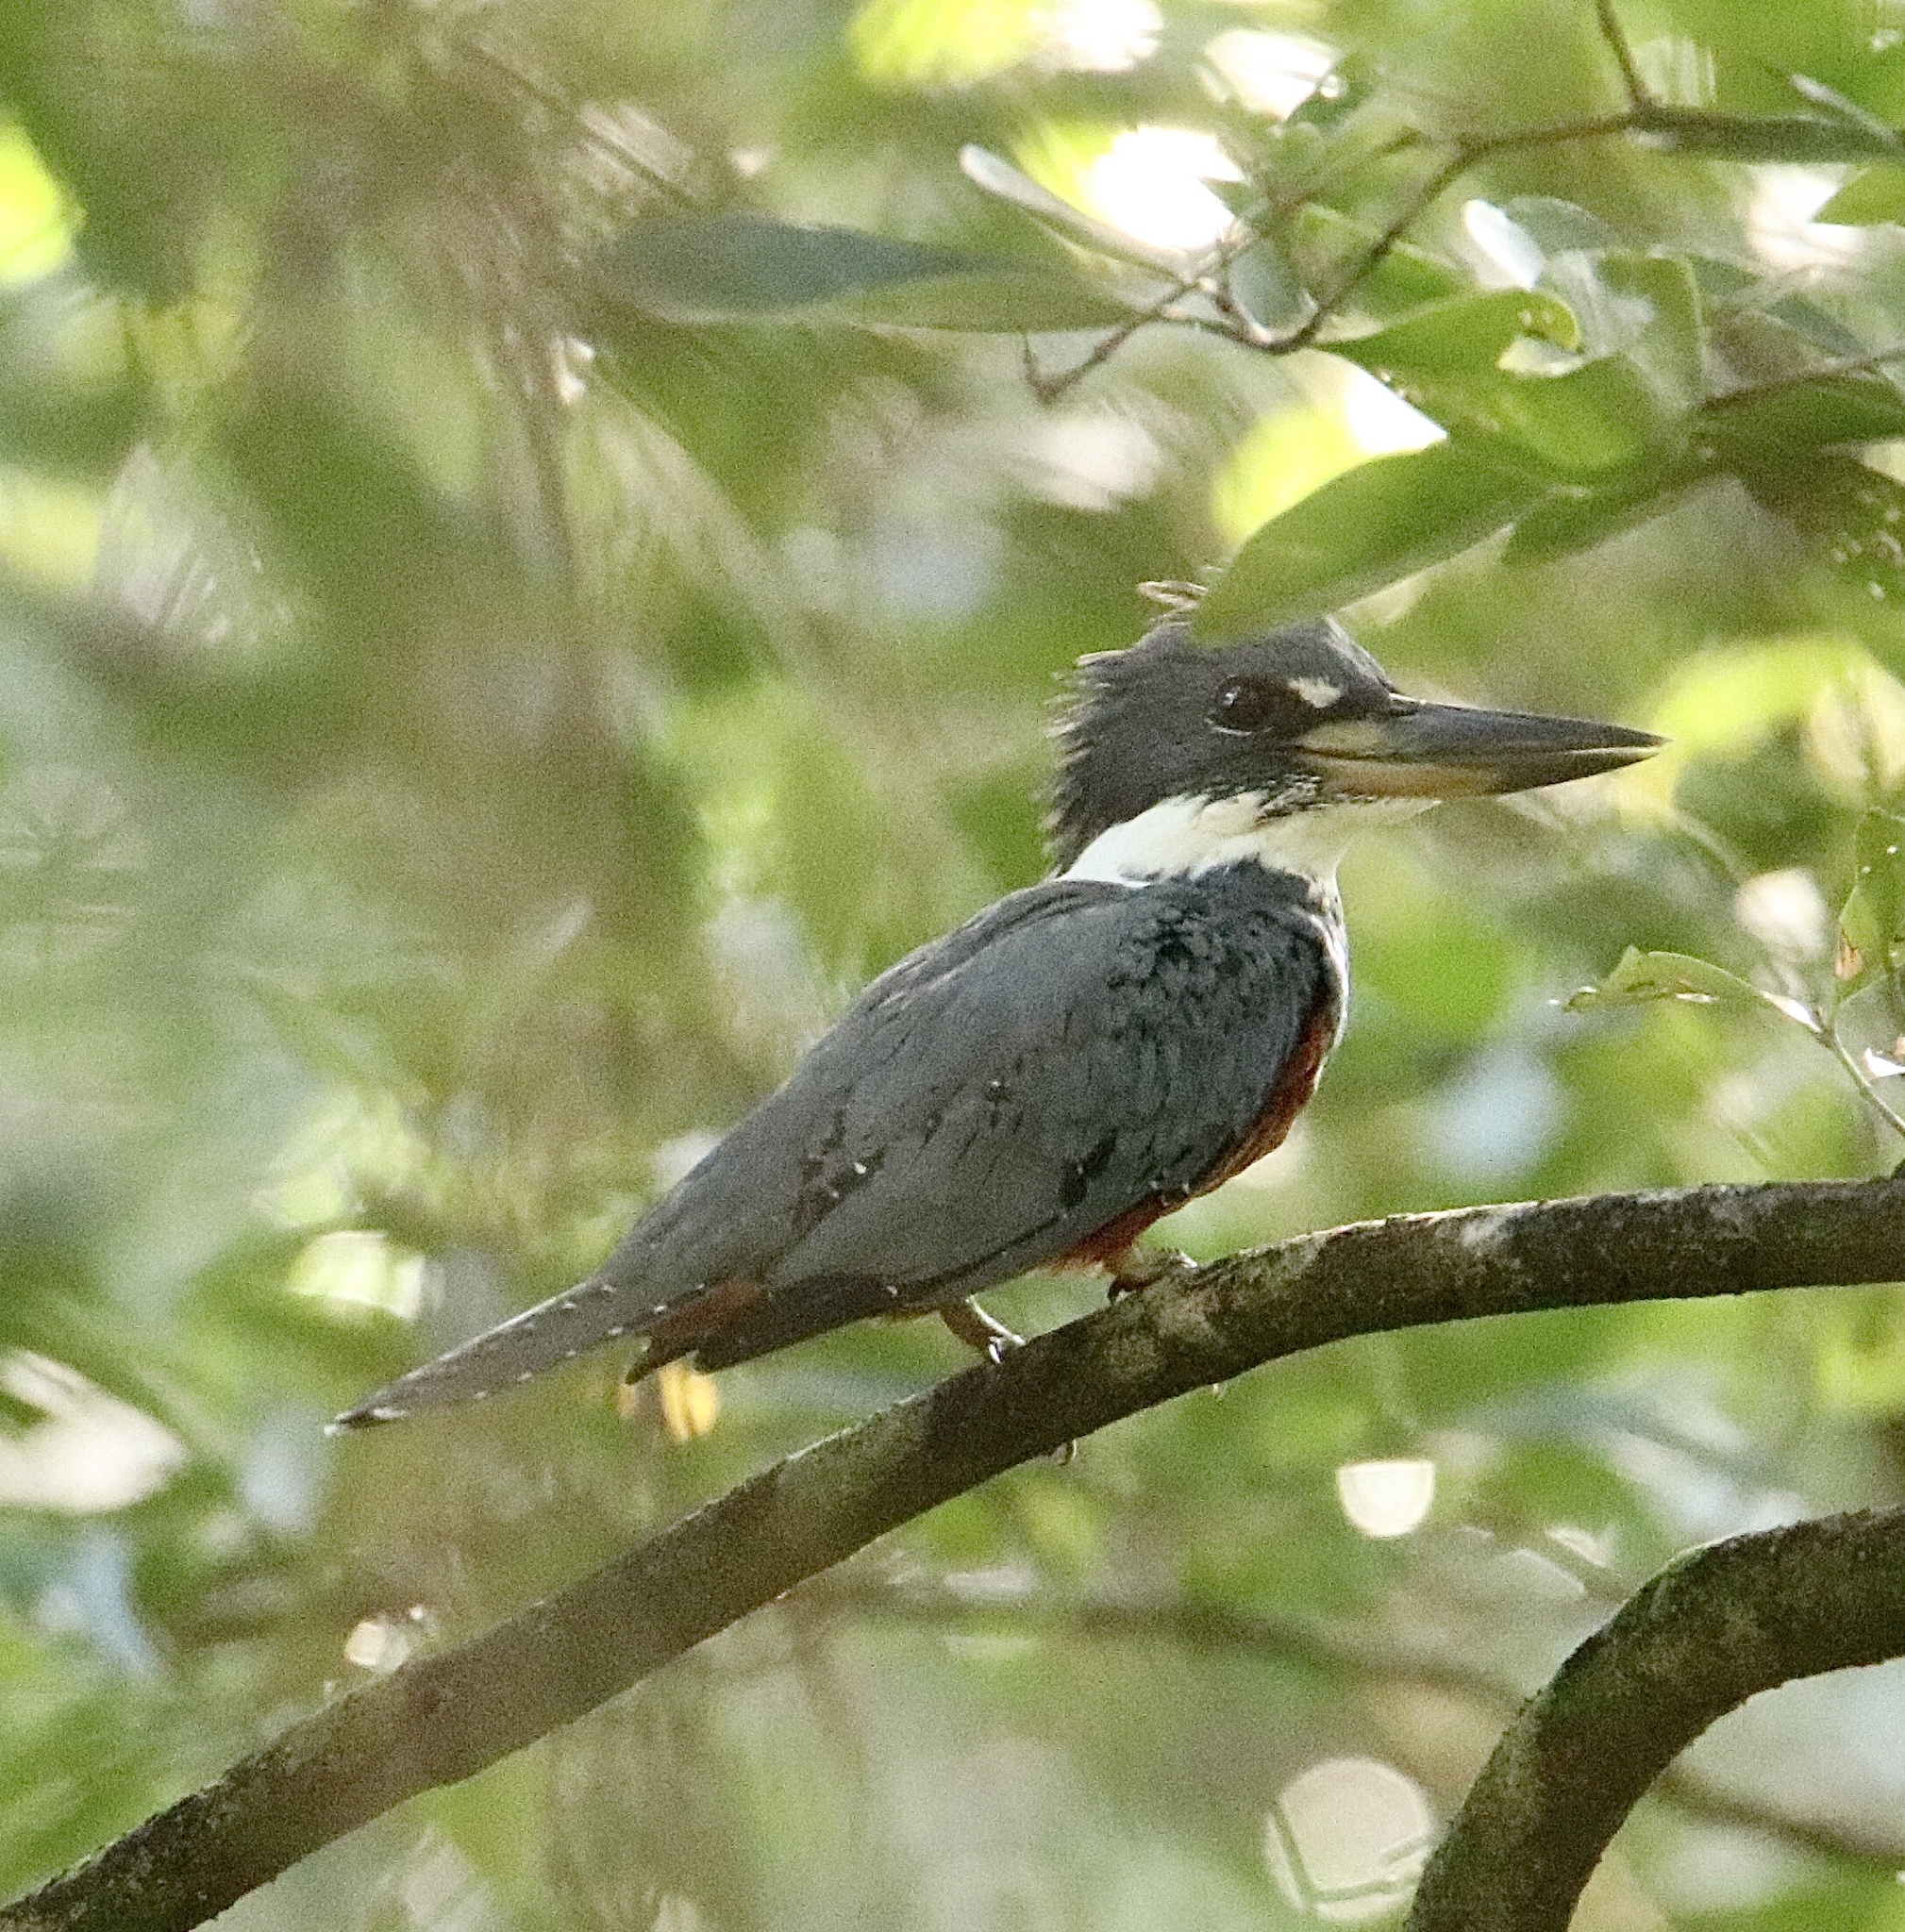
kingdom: Animalia
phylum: Chordata
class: Aves
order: Coraciiformes
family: Alcedinidae
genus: Megaceryle
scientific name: Megaceryle torquata
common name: Ringed kingfisher
